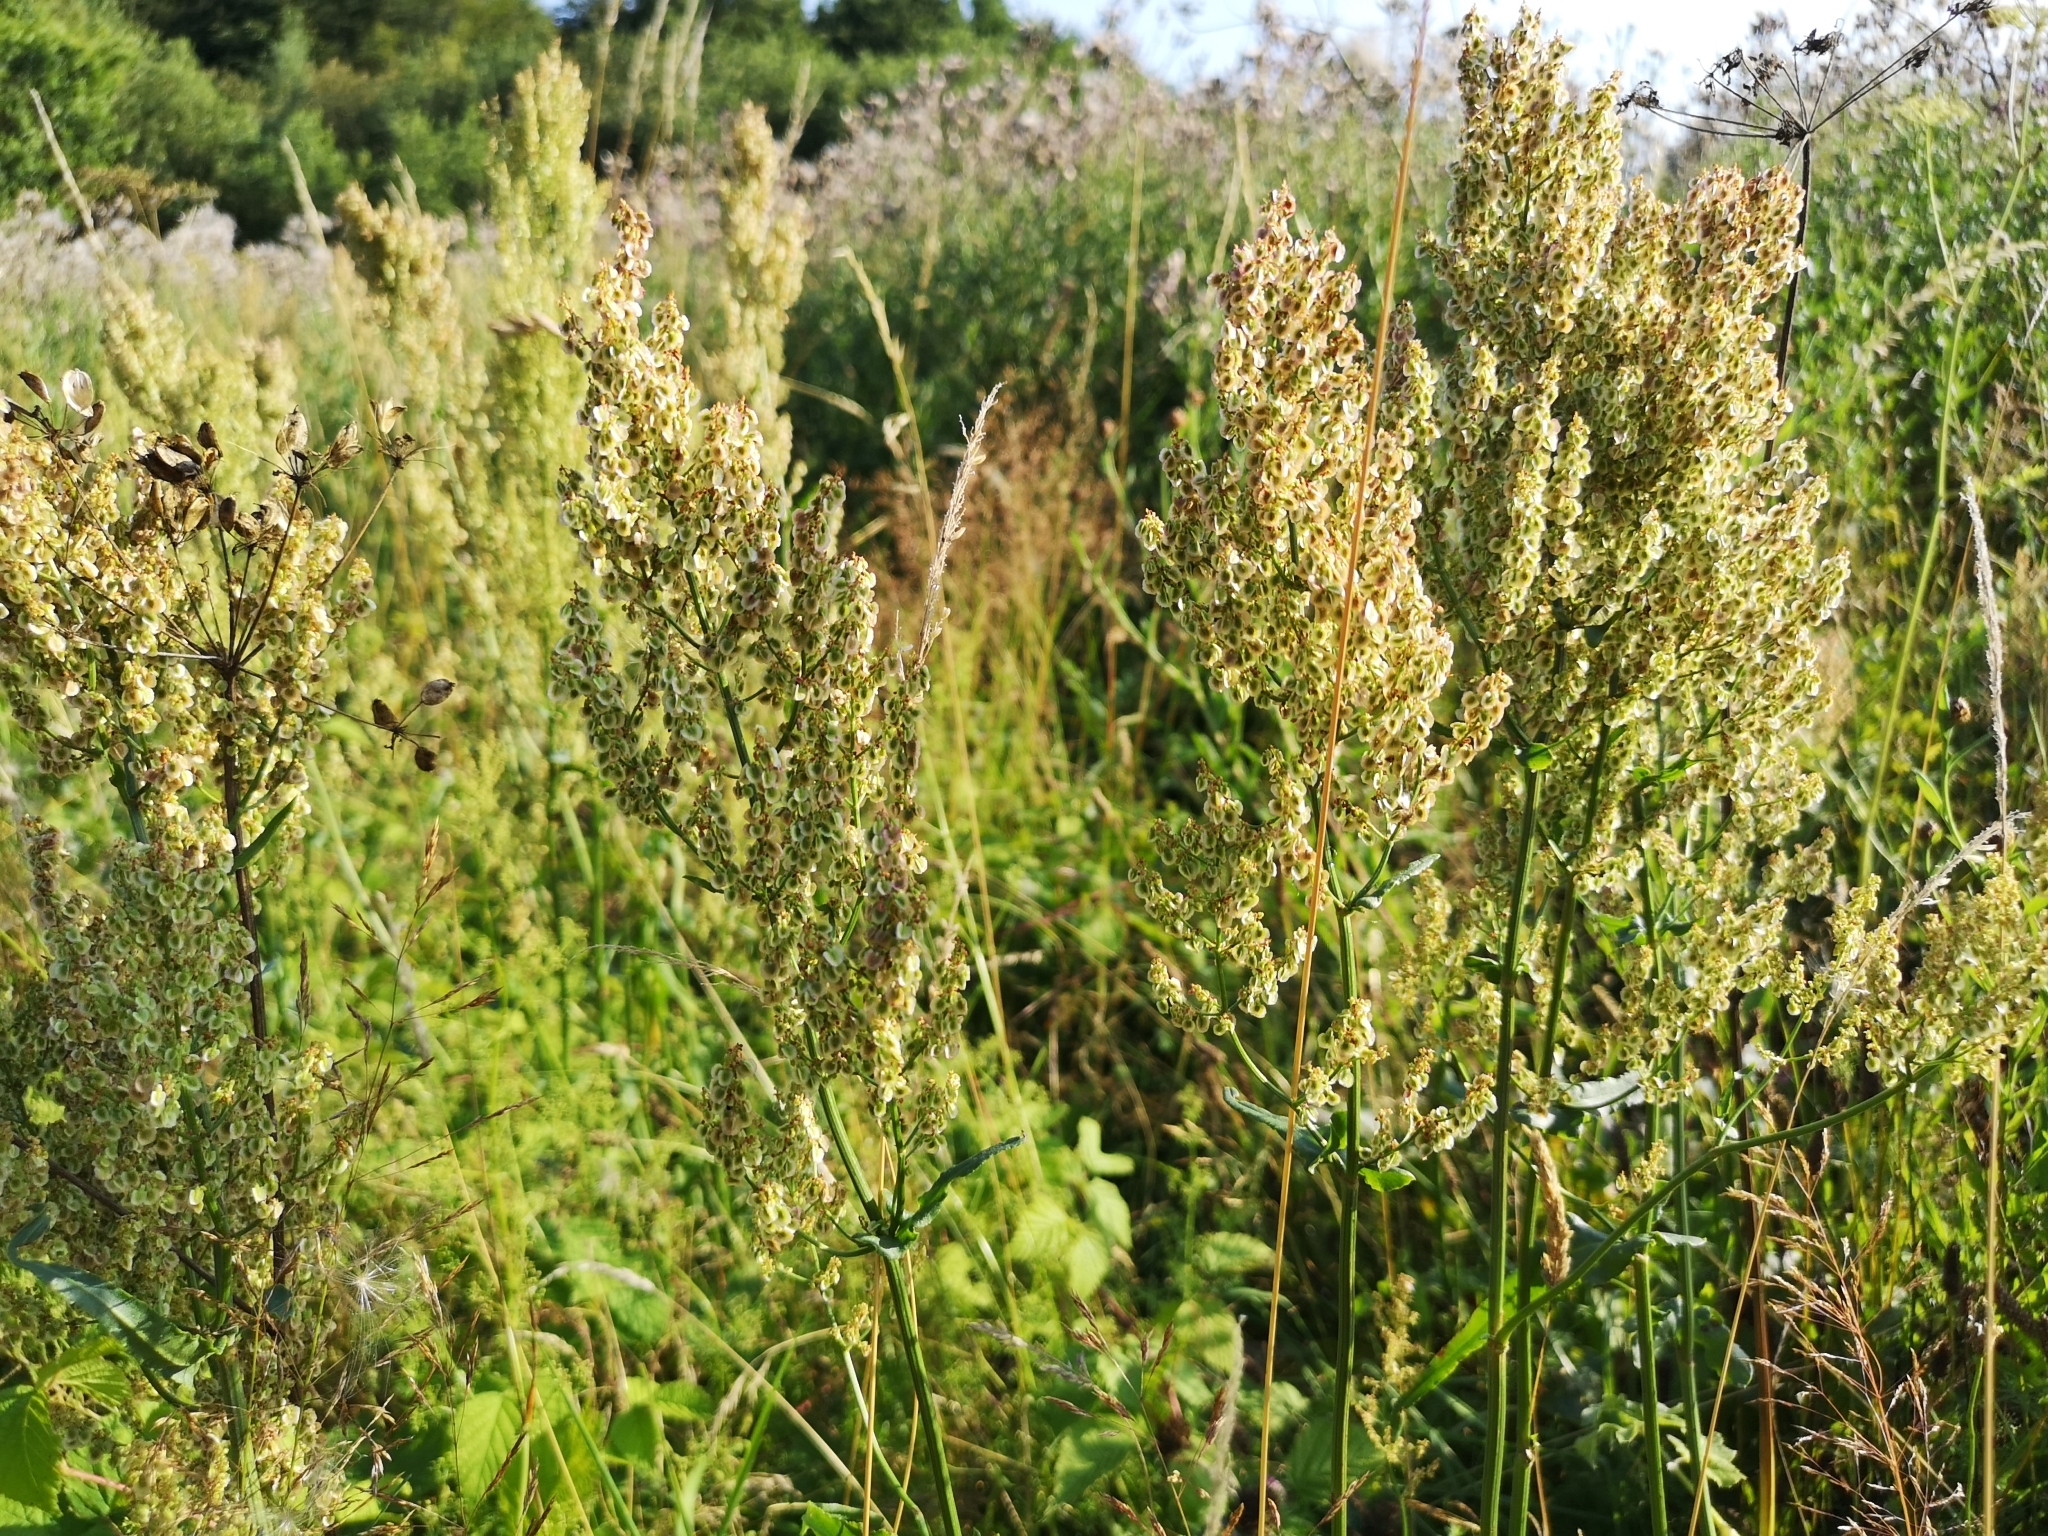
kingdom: Plantae
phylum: Tracheophyta
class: Magnoliopsida
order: Caryophyllales
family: Polygonaceae
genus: Rumex
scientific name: Rumex thyrsiflorus
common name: Garden sorrel
